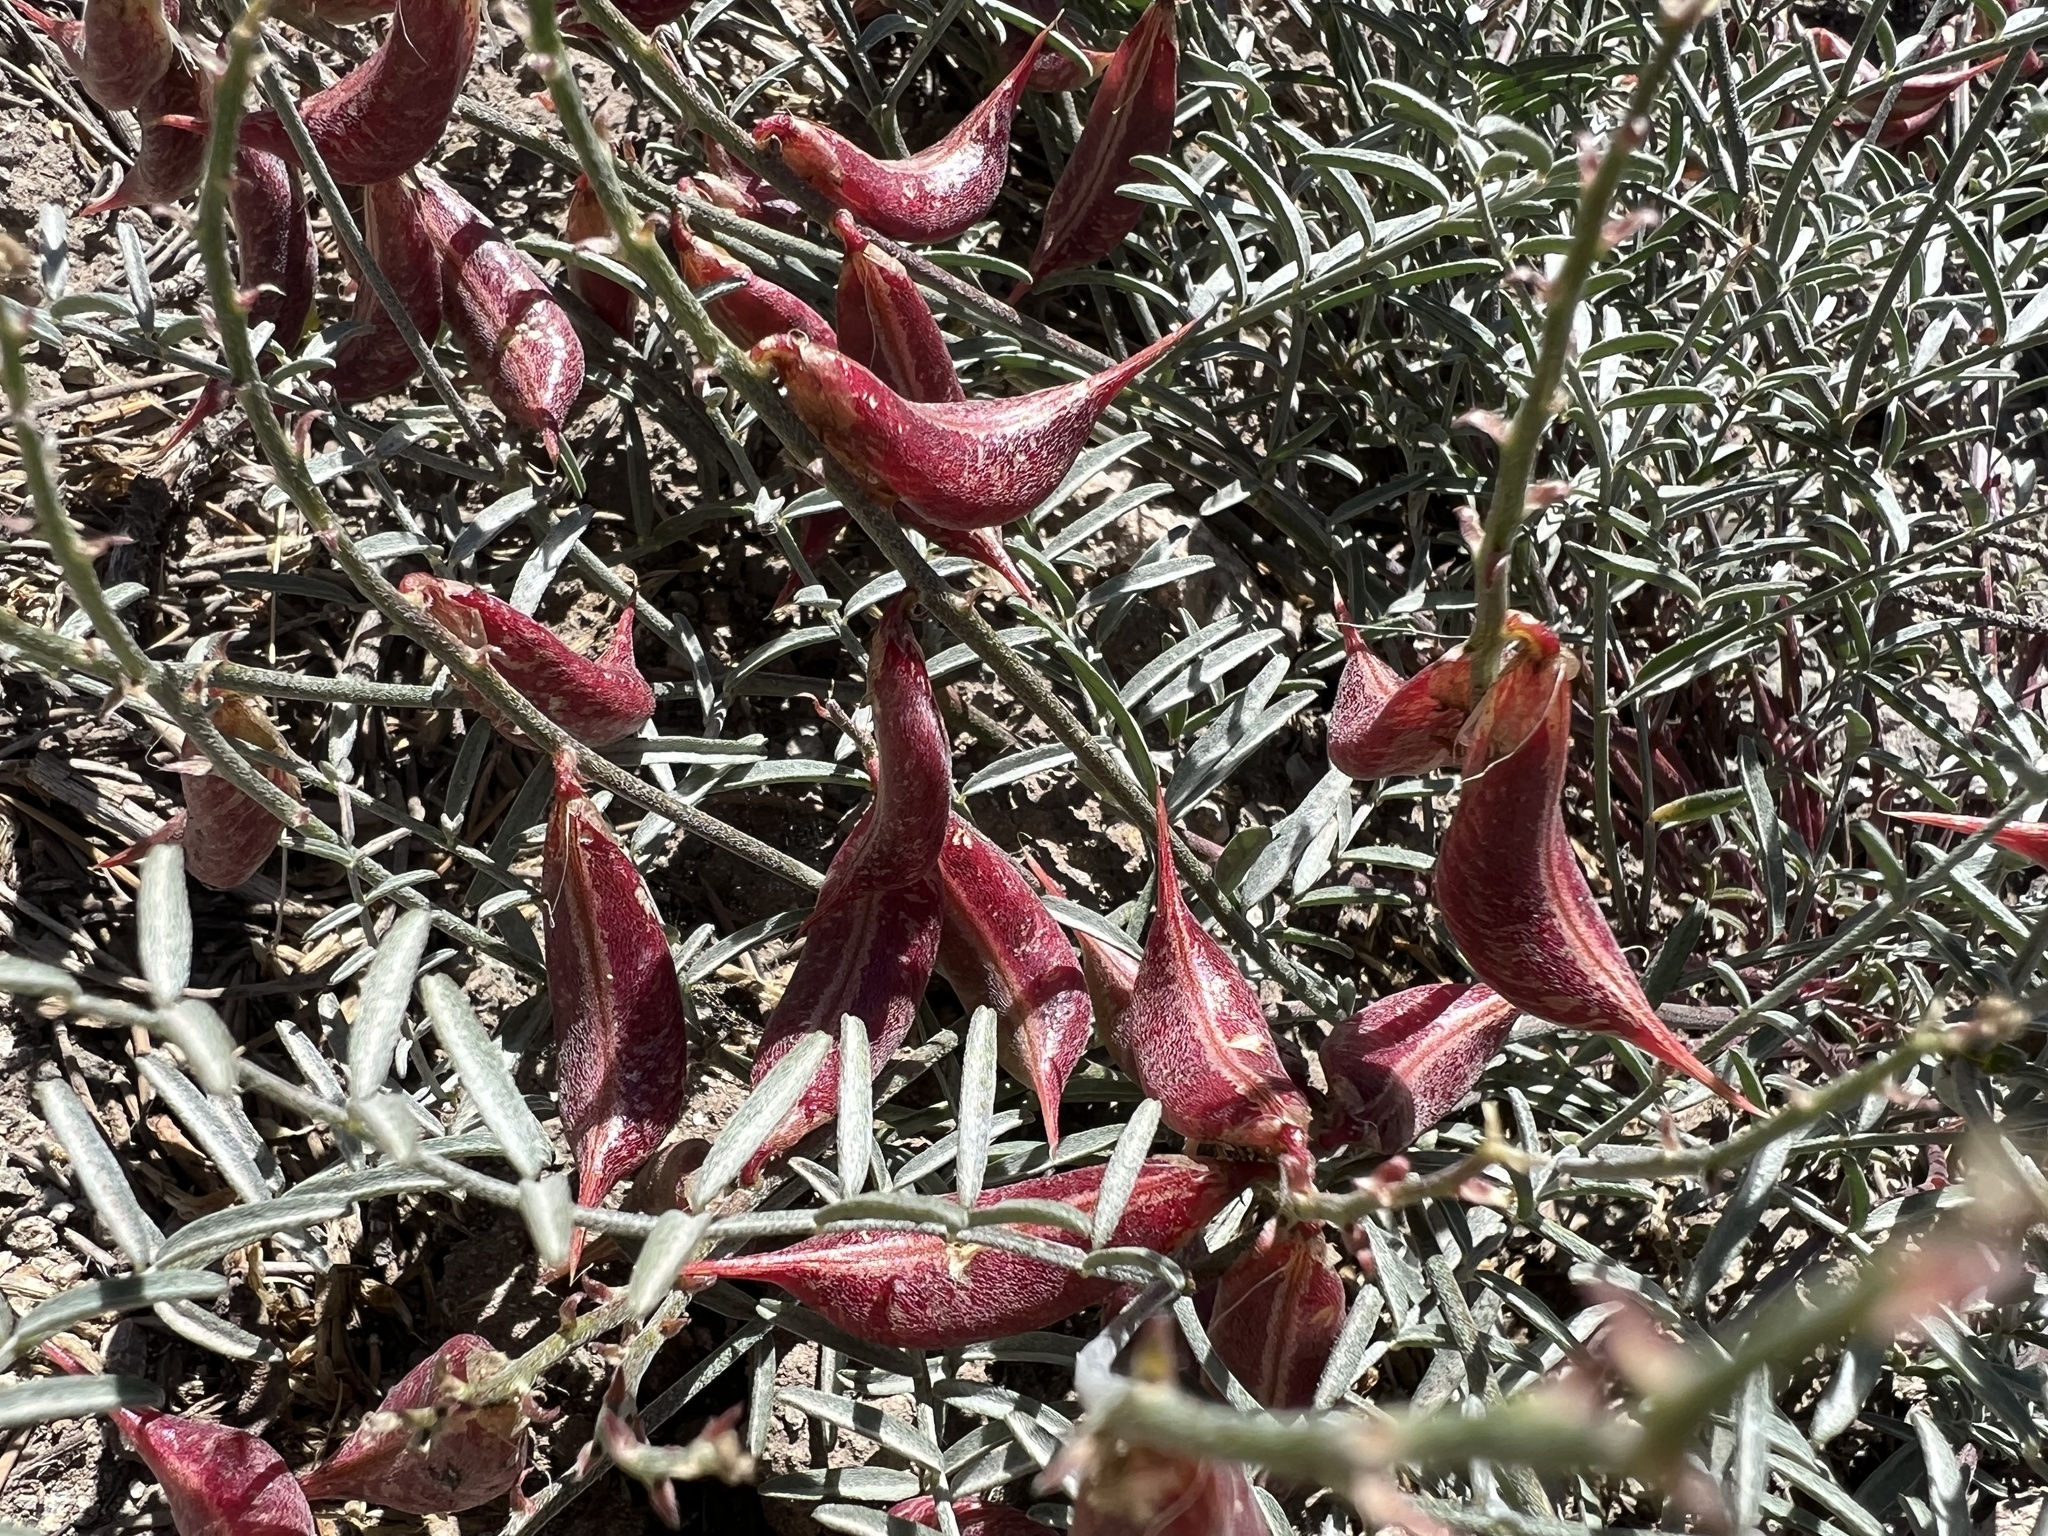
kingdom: Plantae
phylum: Tracheophyta
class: Magnoliopsida
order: Fabales
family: Fabaceae
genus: Astragalus
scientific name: Astragalus casei
